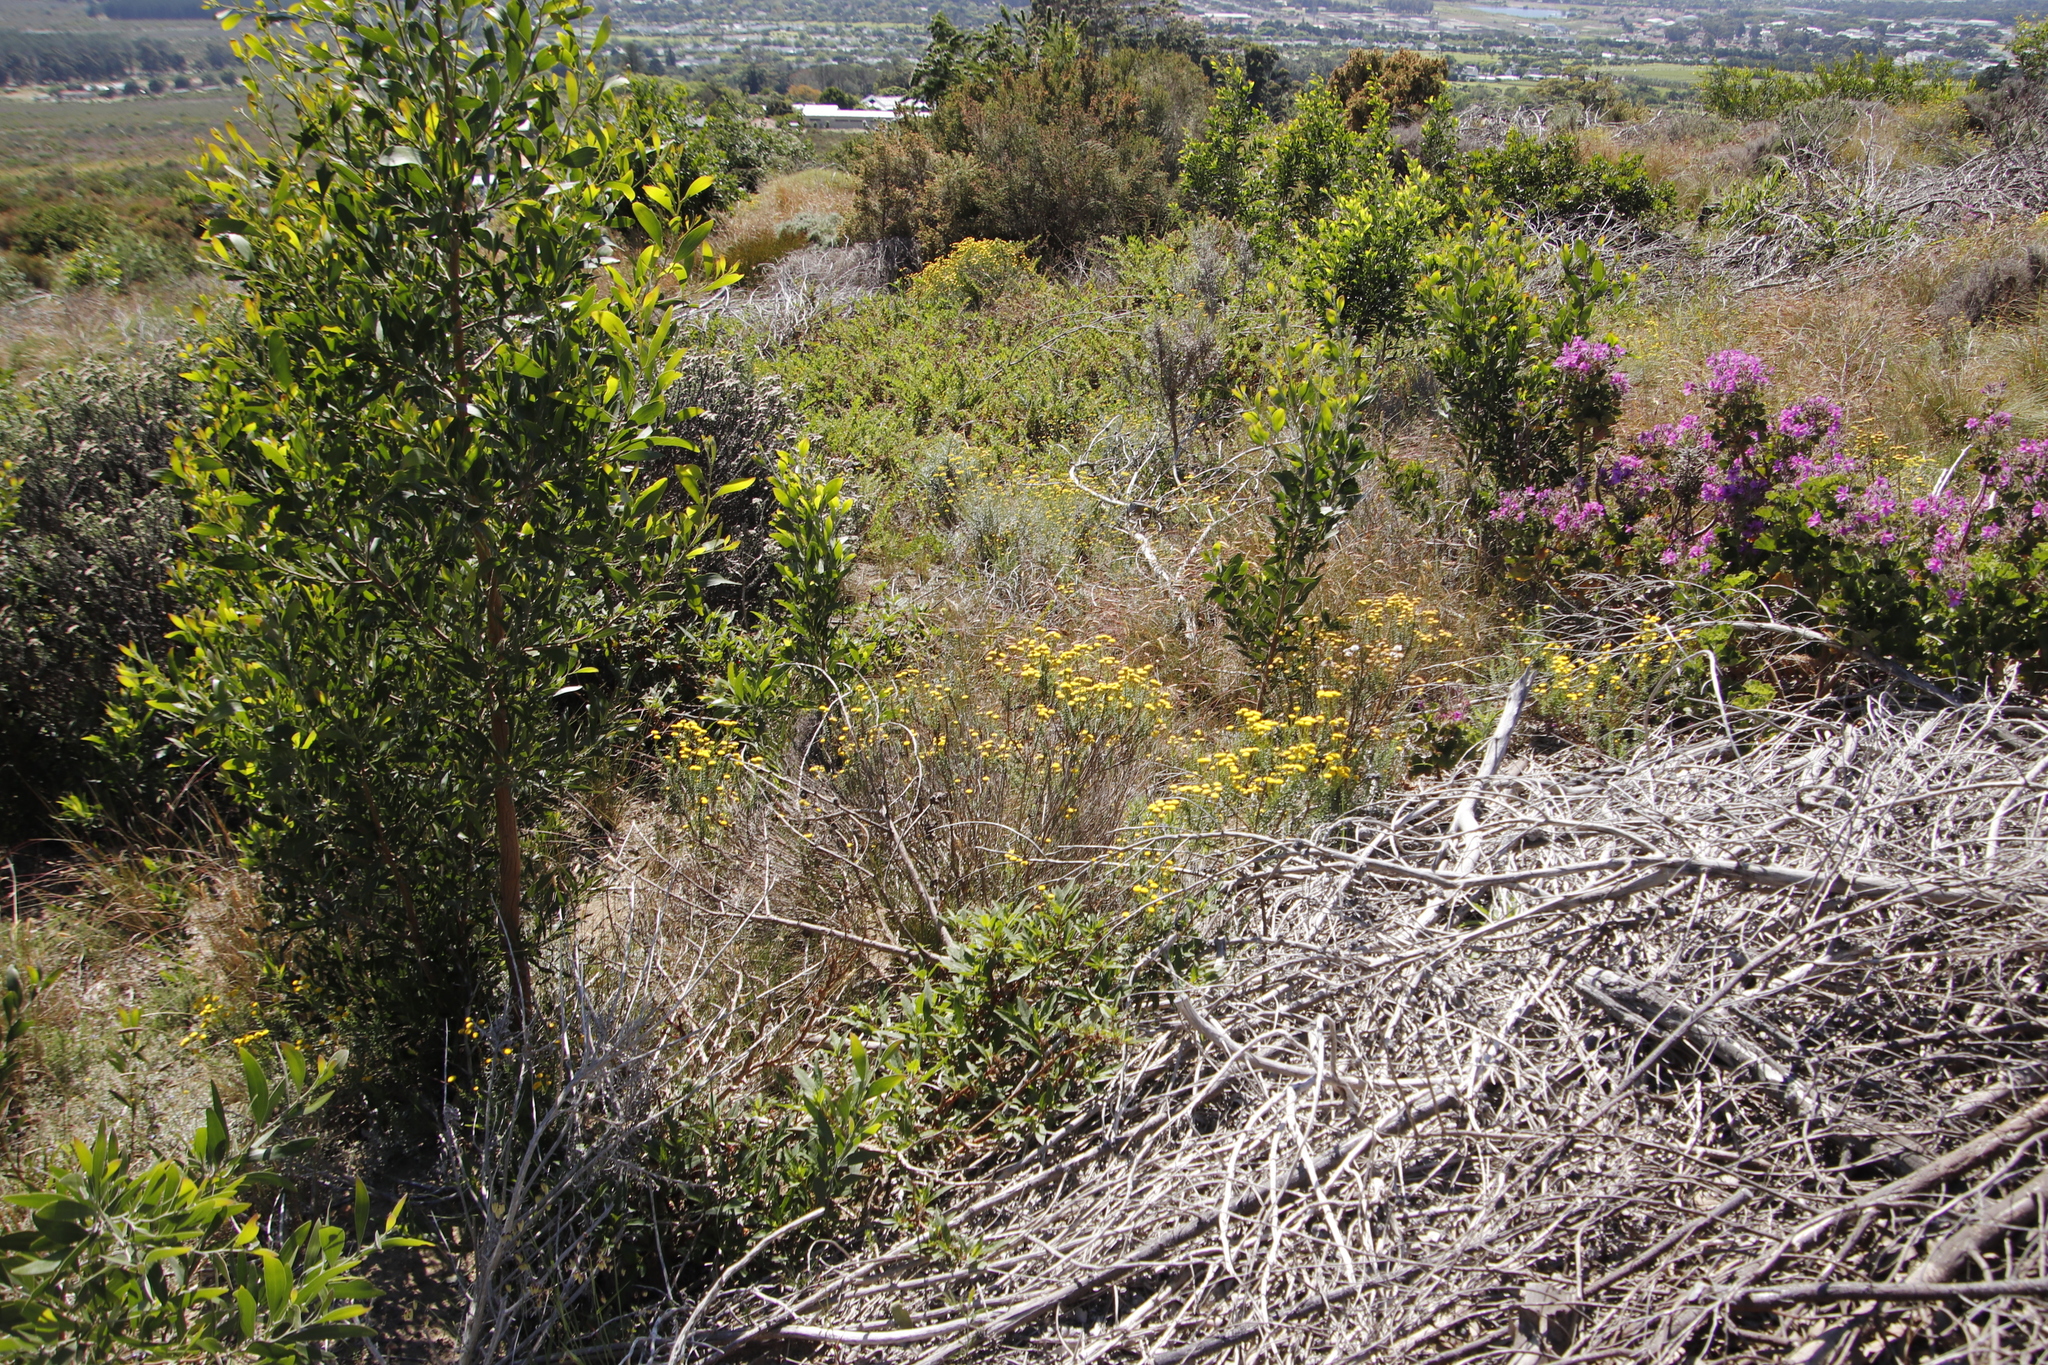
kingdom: Plantae
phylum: Tracheophyta
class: Magnoliopsida
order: Fabales
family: Fabaceae
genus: Acacia
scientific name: Acacia melanoxylon
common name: Blackwood
